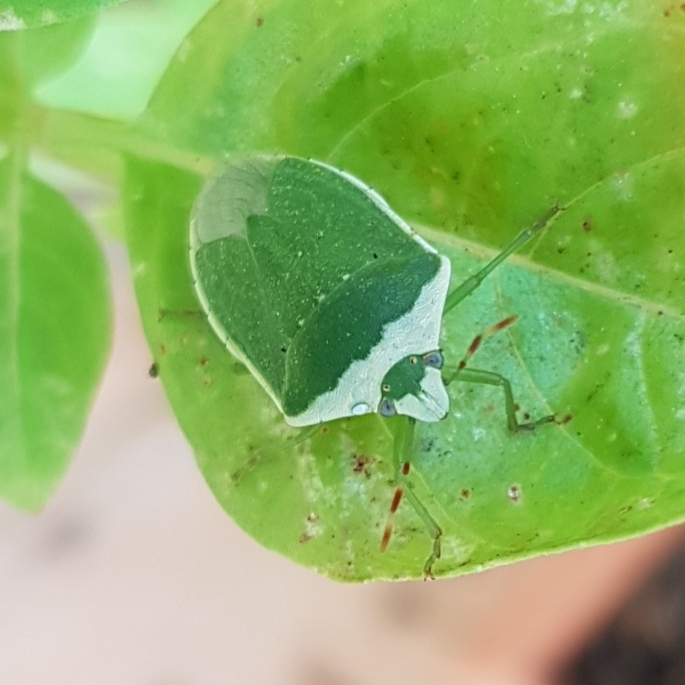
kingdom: Animalia
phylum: Arthropoda
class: Insecta
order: Hemiptera
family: Pentatomidae
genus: Nezara
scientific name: Nezara viridula
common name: Southern green stink bug
